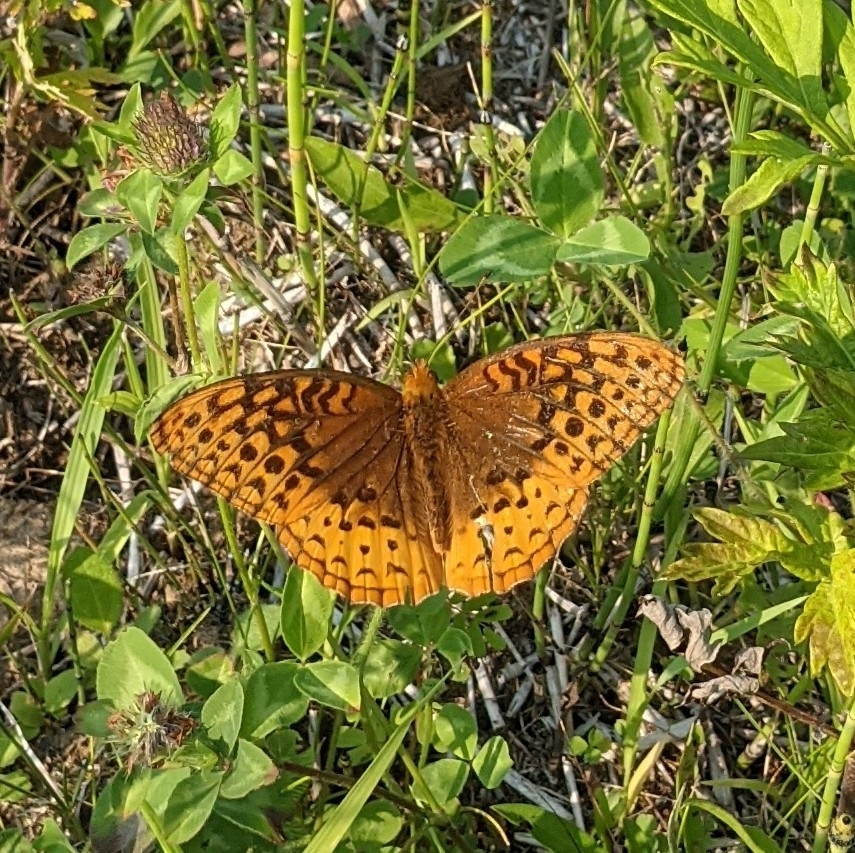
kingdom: Animalia
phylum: Arthropoda
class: Insecta
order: Lepidoptera
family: Nymphalidae
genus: Speyeria
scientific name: Speyeria cybele
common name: Great spangled fritillary
